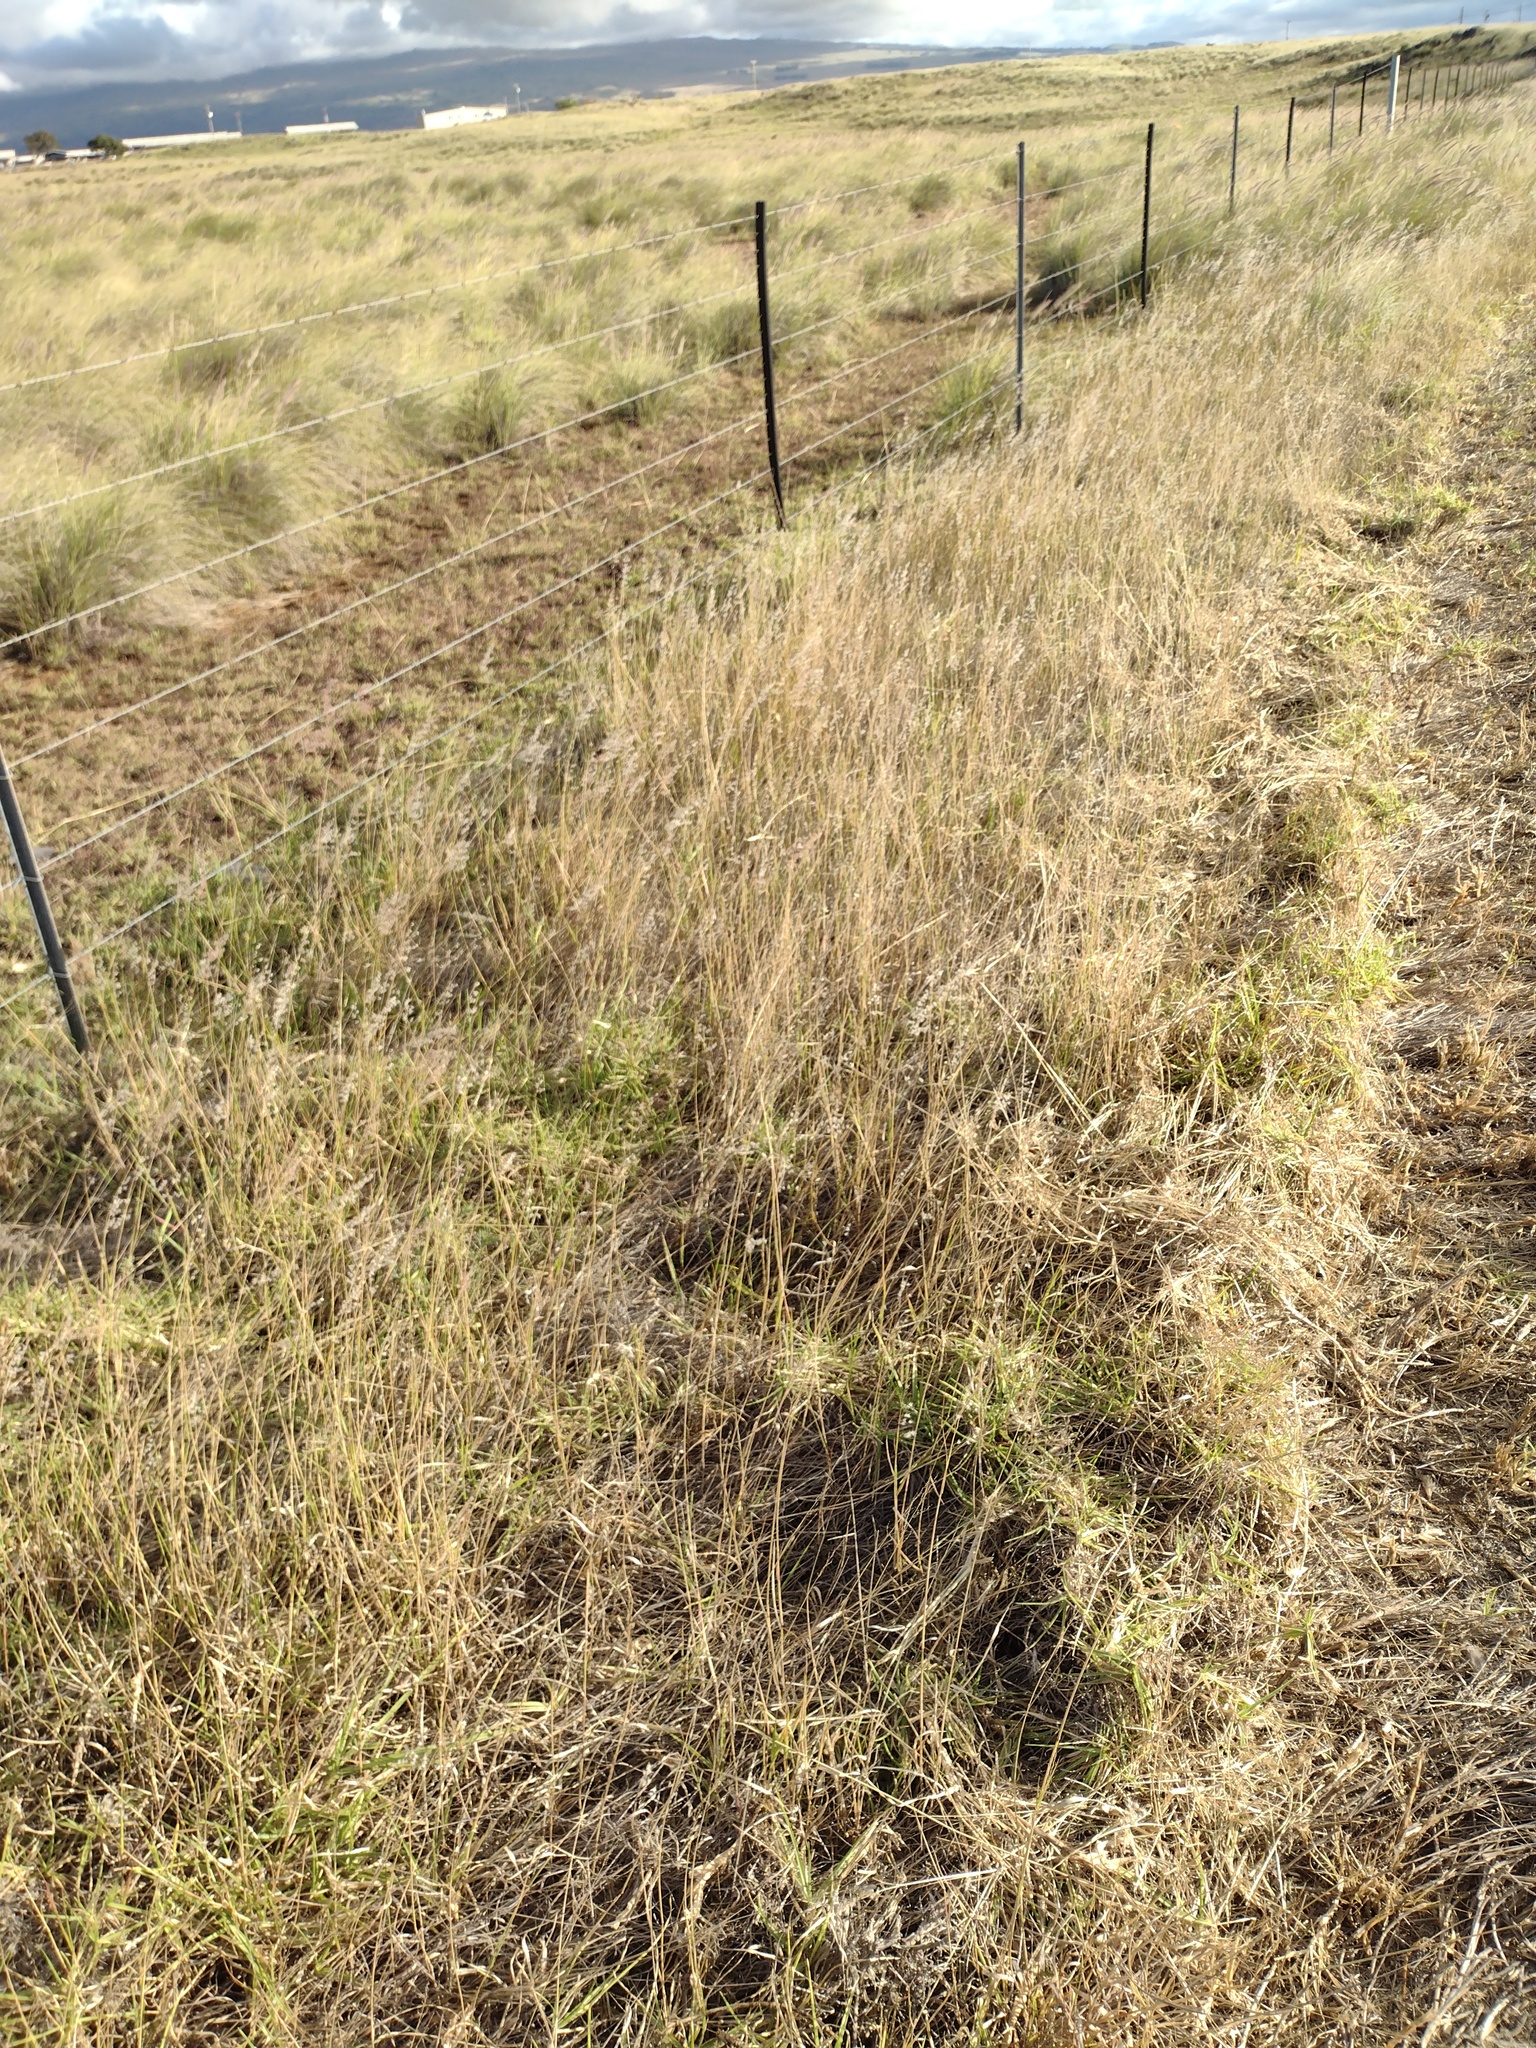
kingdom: Plantae
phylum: Tracheophyta
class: Liliopsida
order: Poales
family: Poaceae
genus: Melinis
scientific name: Melinis repens
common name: Rose natal grass
